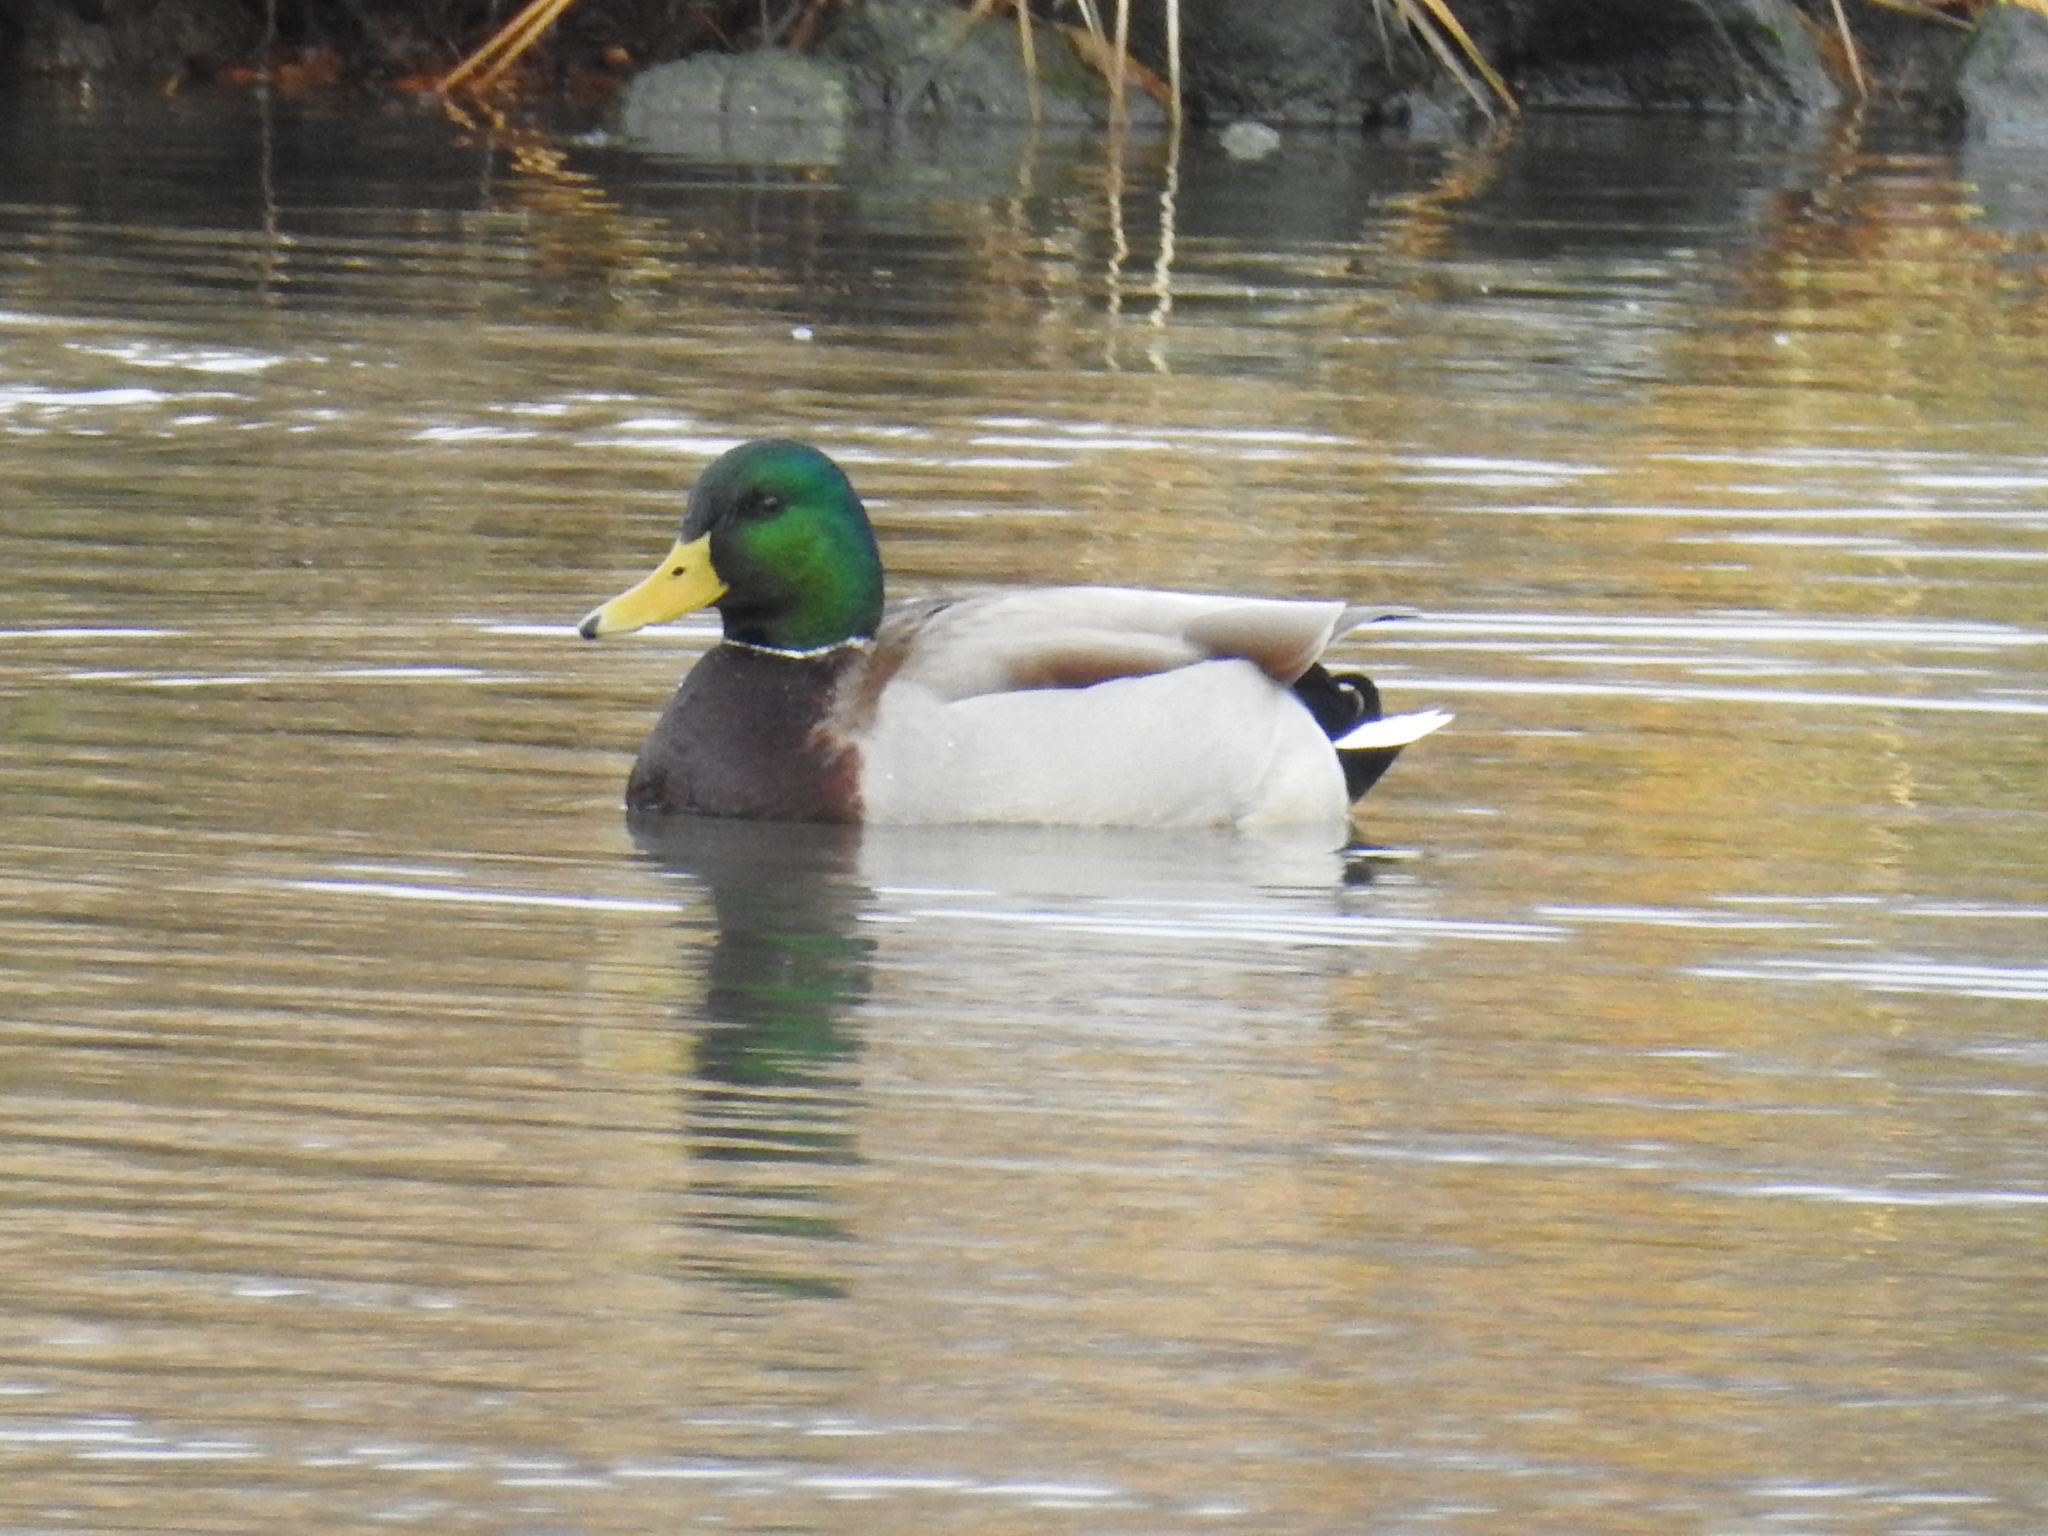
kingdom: Animalia
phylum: Chordata
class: Aves
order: Anseriformes
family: Anatidae
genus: Anas
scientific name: Anas platyrhynchos
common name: Mallard
